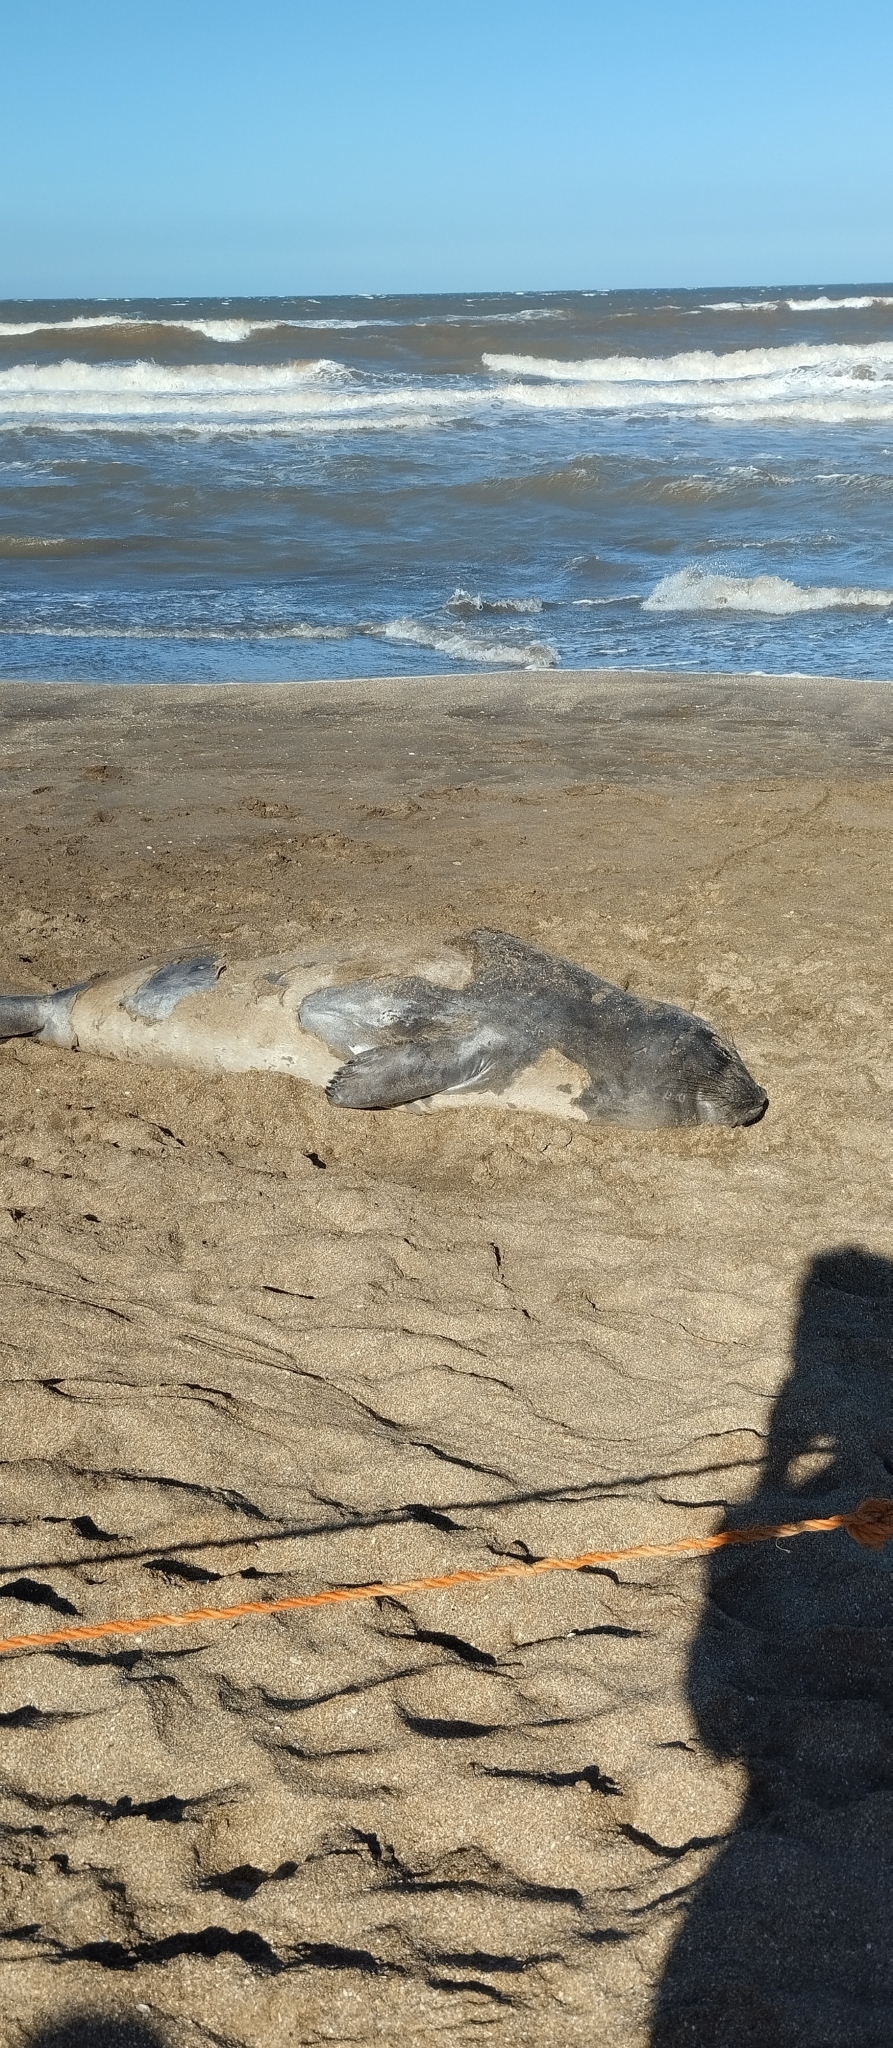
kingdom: Animalia
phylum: Chordata
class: Mammalia
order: Carnivora
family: Phocidae
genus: Mirounga
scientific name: Mirounga leonina
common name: Southern elephant seal
